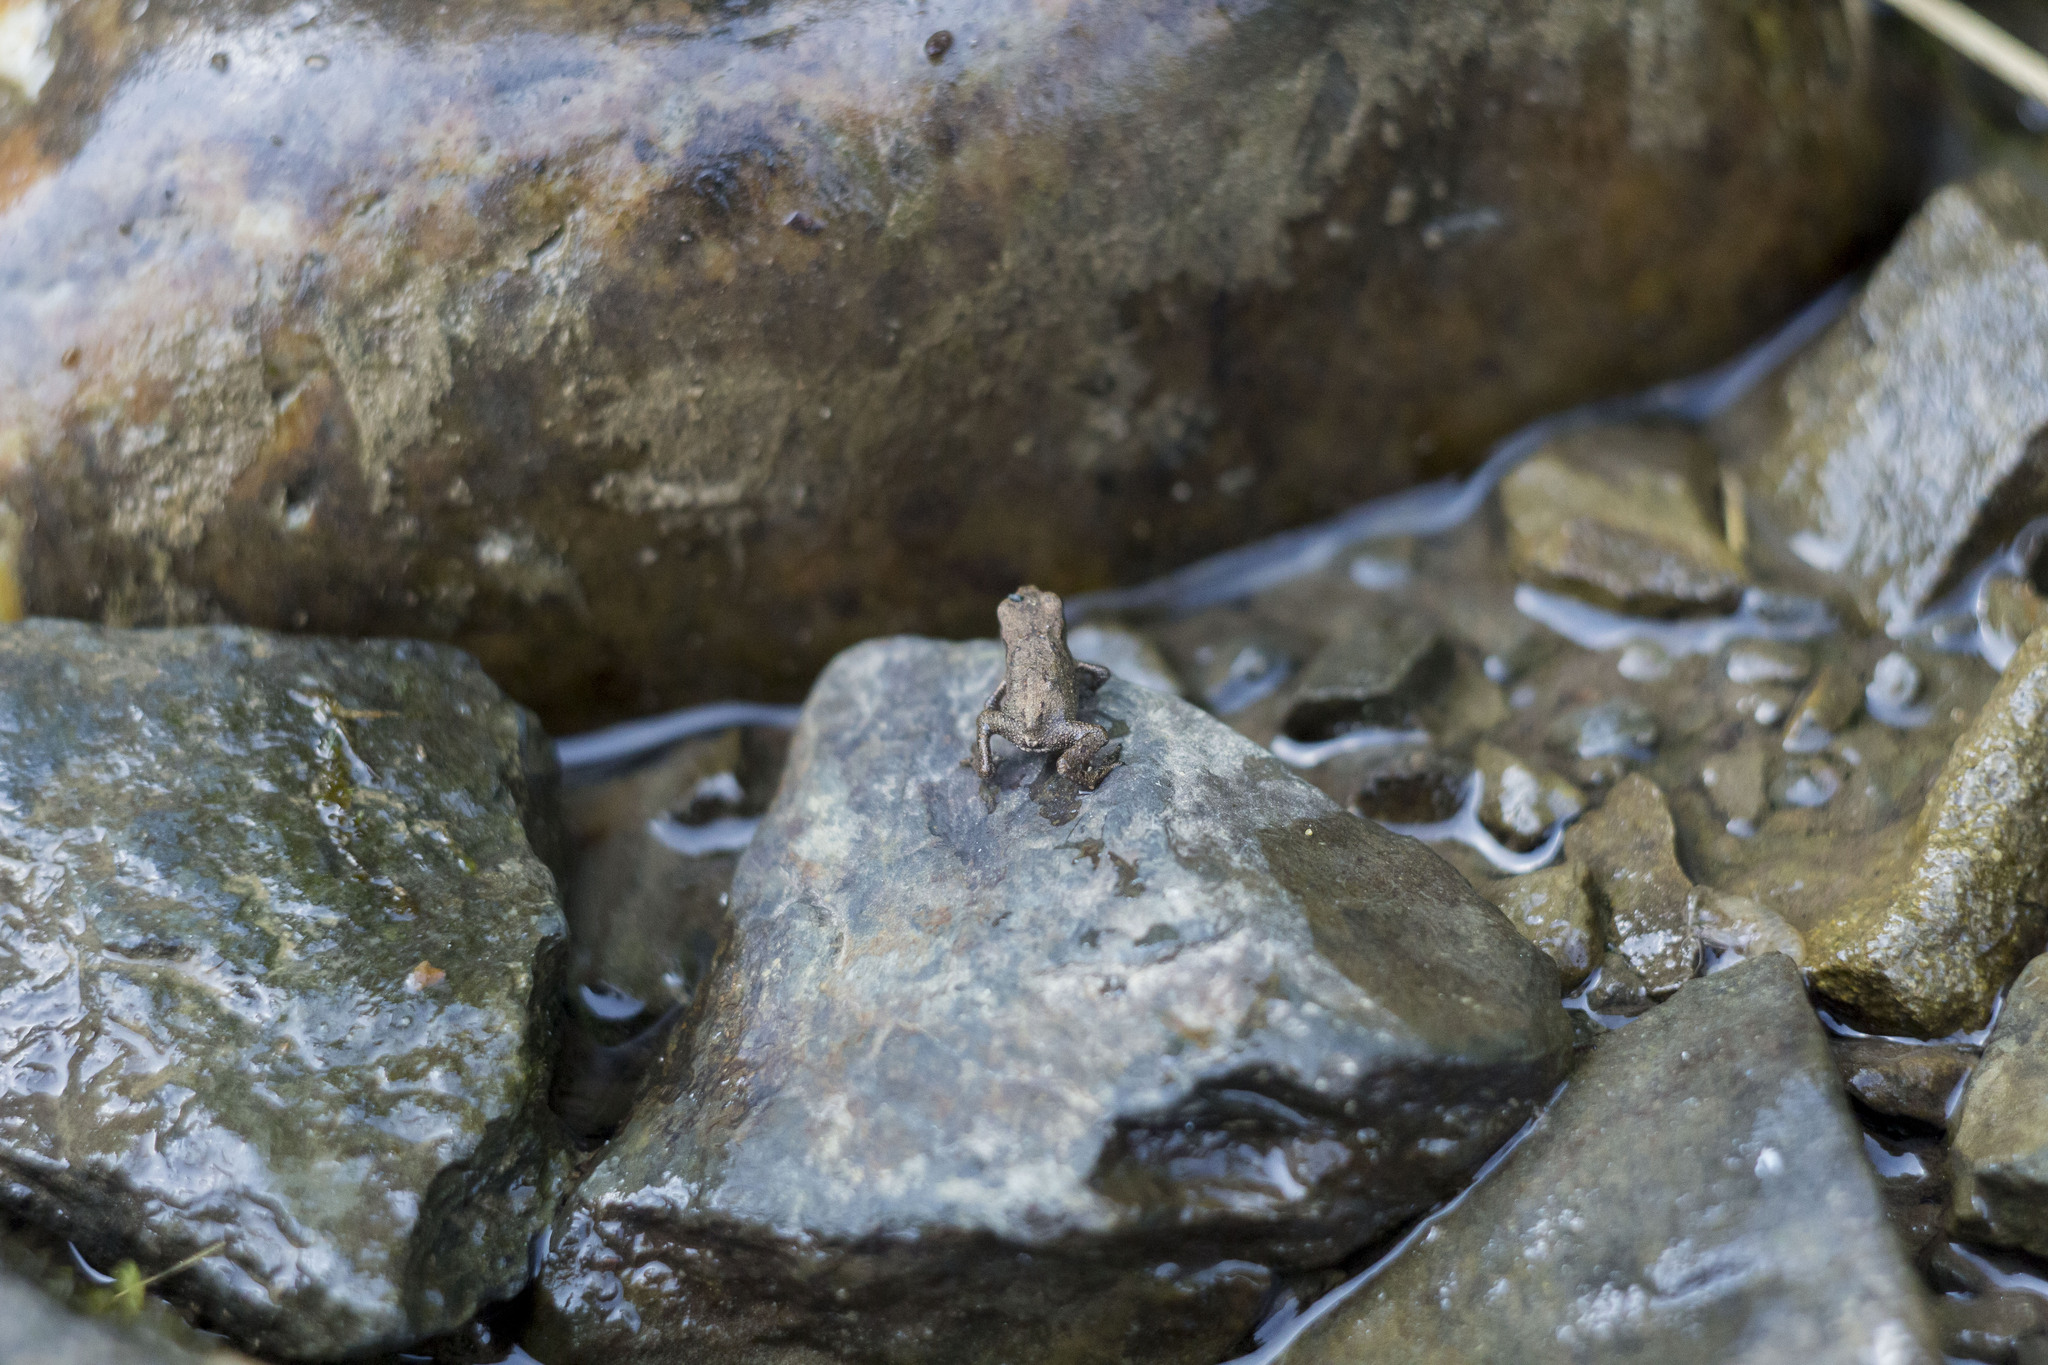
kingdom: Animalia
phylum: Chordata
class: Amphibia
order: Anura
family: Bufonidae
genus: Bufo
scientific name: Bufo bufo
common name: Common toad
